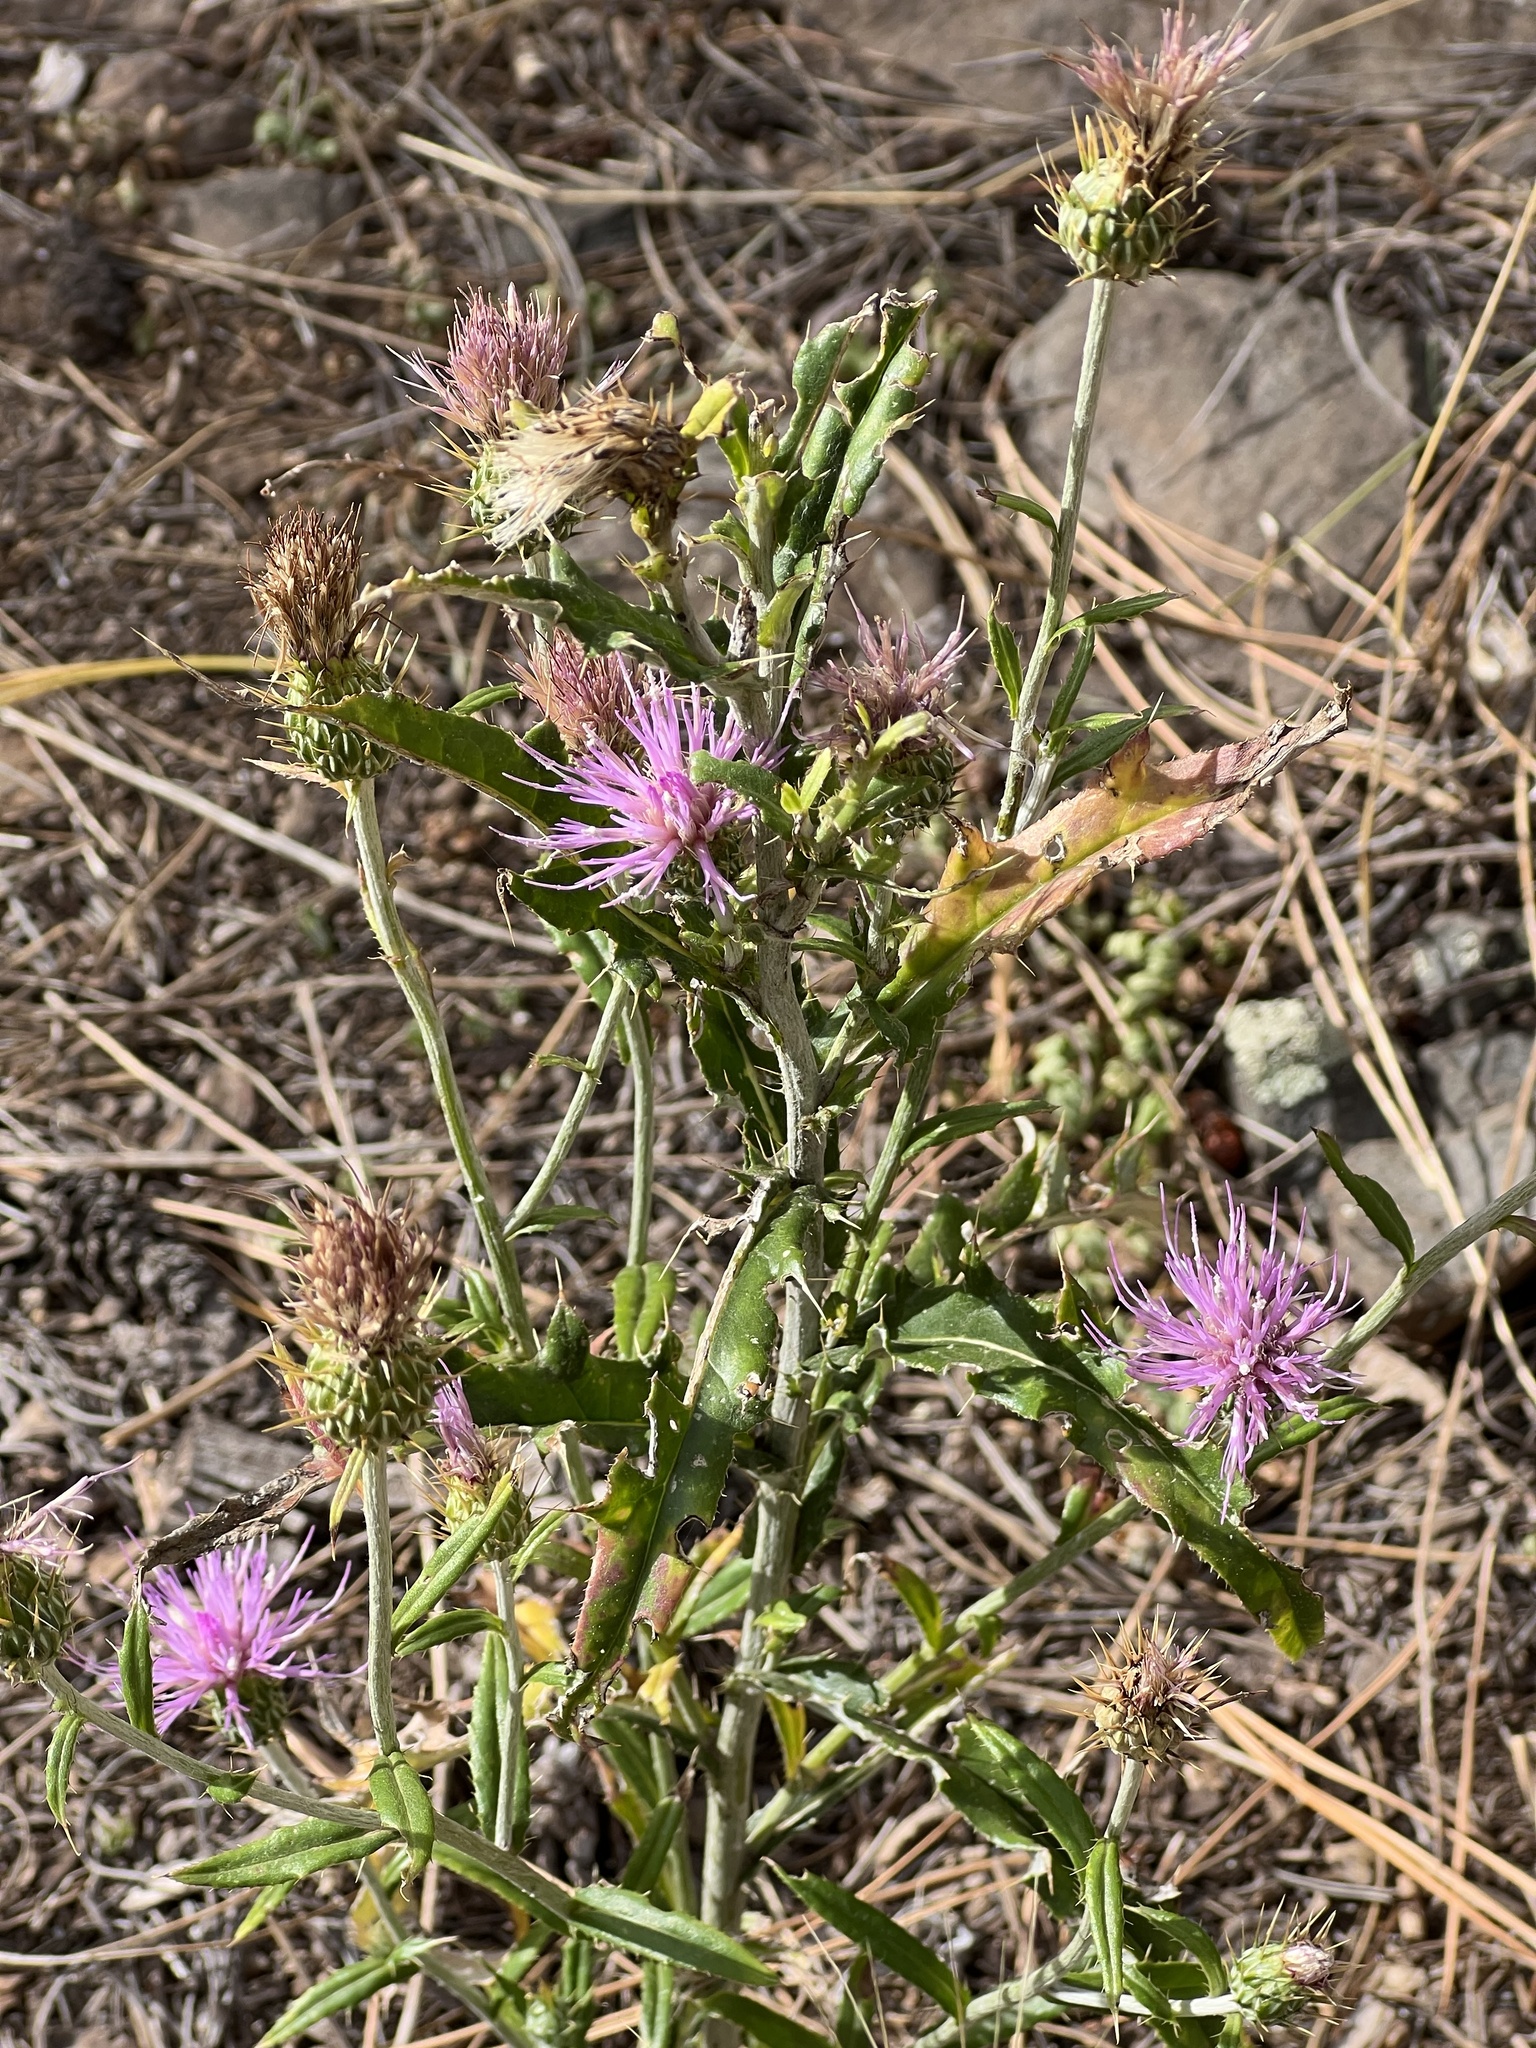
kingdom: Plantae
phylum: Tracheophyta
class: Magnoliopsida
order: Asterales
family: Asteraceae
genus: Cirsium
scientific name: Cirsium wheeleri
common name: Wheeler's thistle
